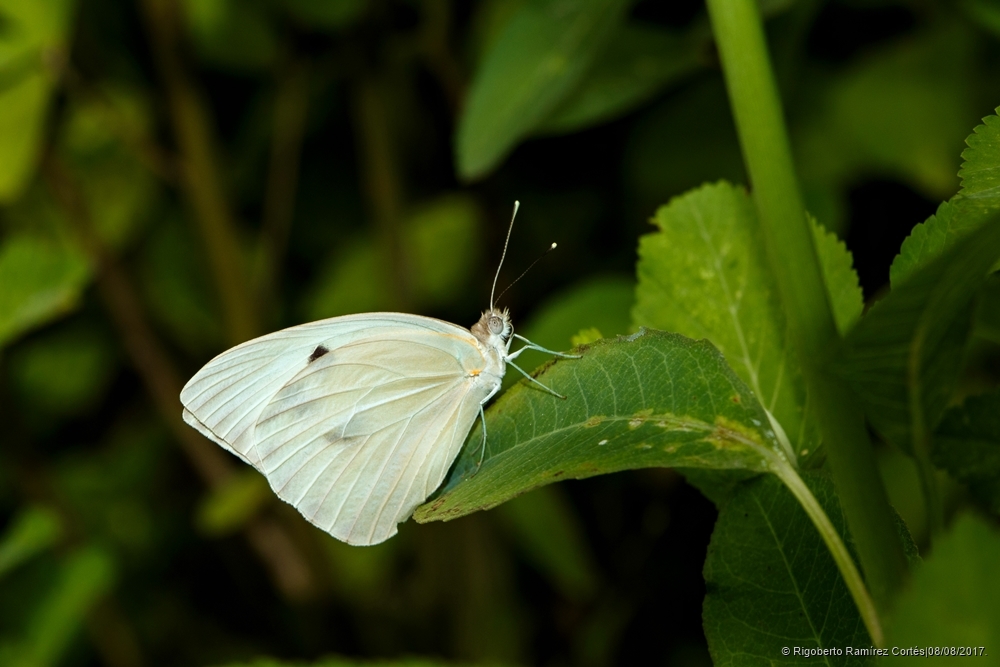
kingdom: Animalia
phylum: Arthropoda
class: Insecta
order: Lepidoptera
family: Pieridae
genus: Ganyra
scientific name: Ganyra josephina
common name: Giant white
